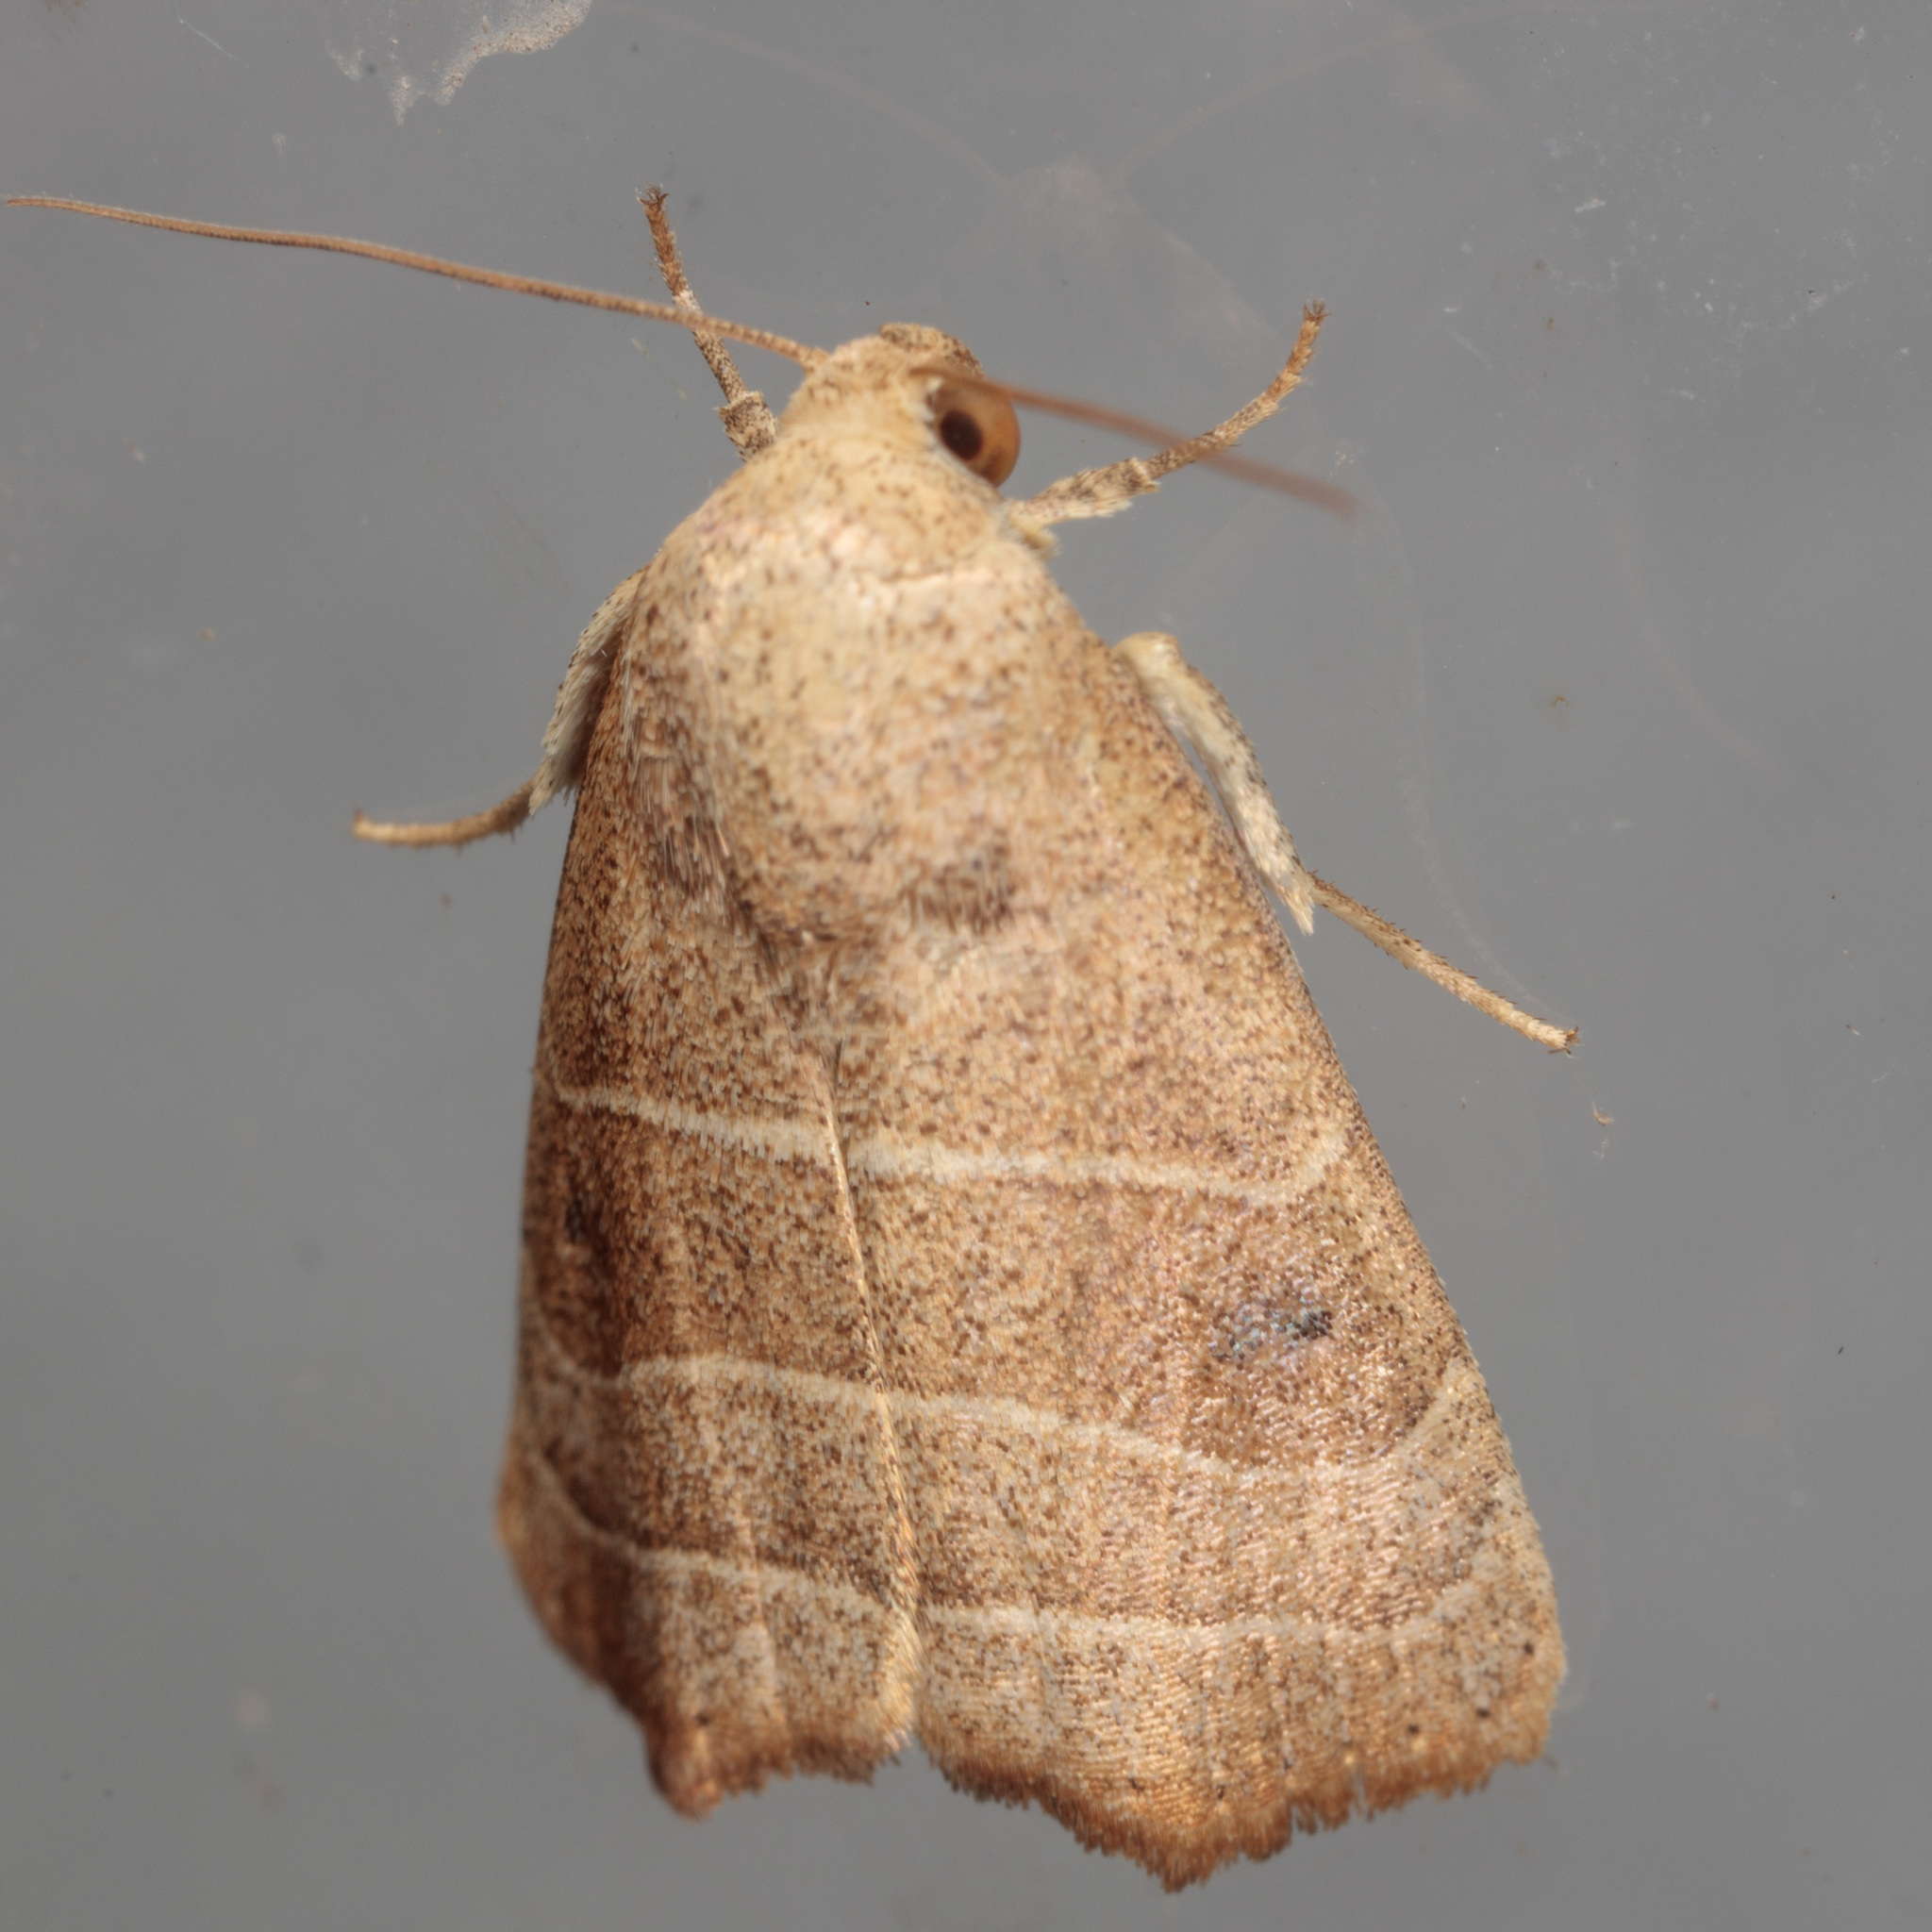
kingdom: Animalia
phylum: Arthropoda
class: Insecta
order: Lepidoptera
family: Noctuidae
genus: Bagisara
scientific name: Bagisara repanda
